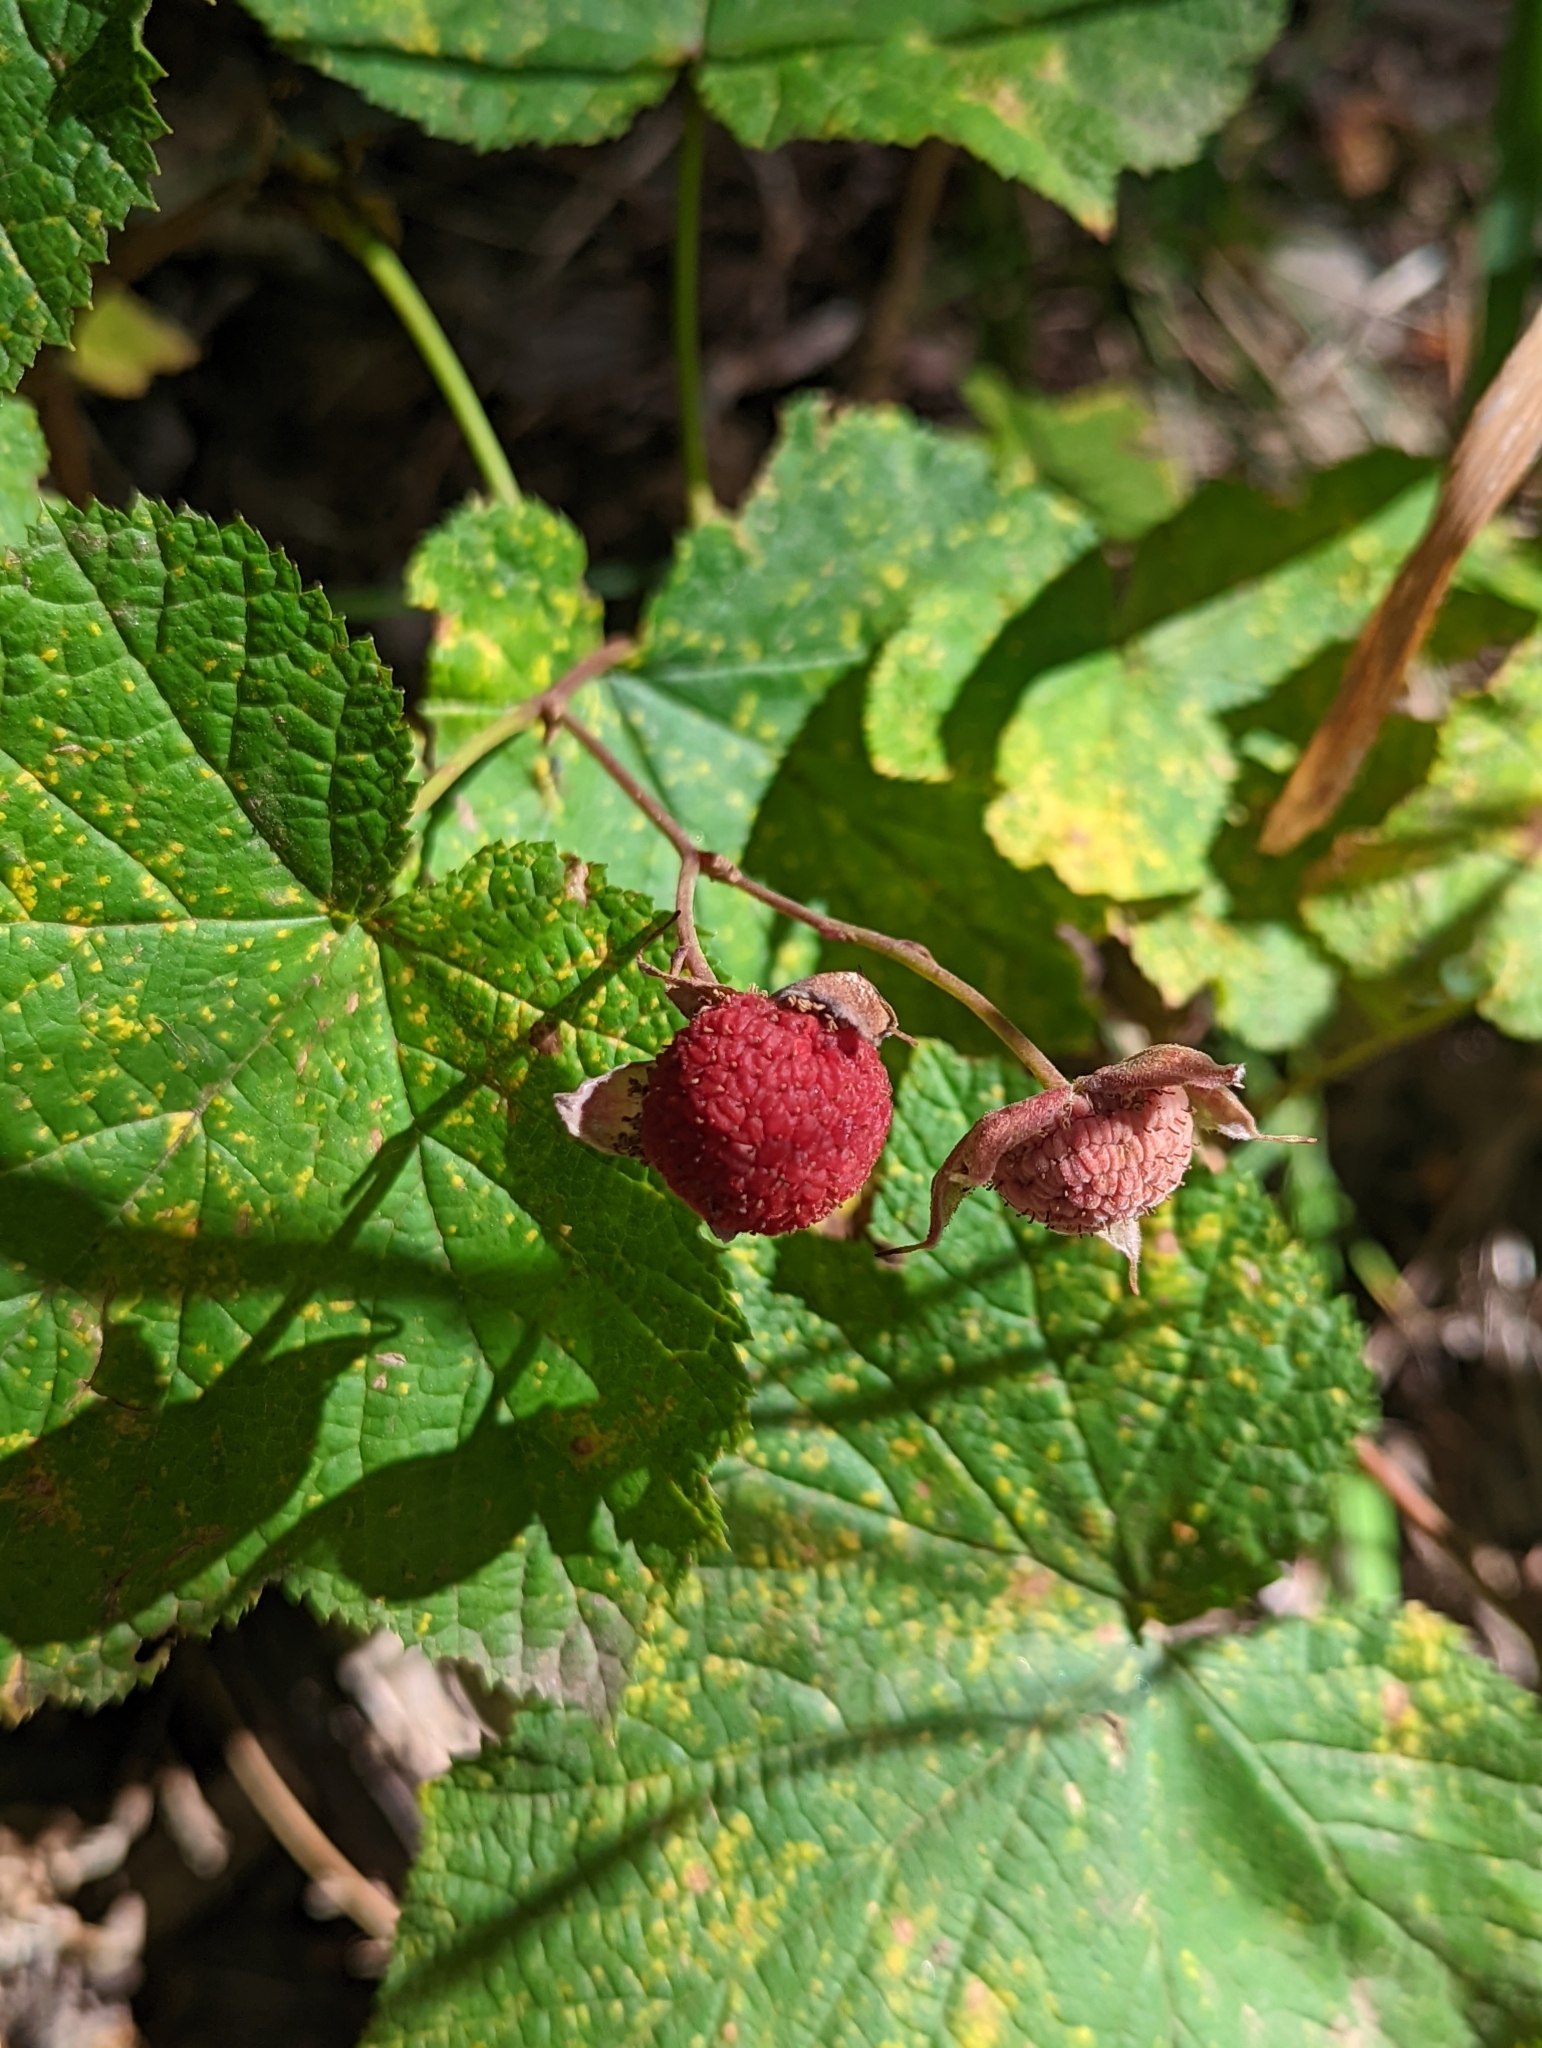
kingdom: Plantae
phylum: Tracheophyta
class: Magnoliopsida
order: Rosales
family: Rosaceae
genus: Rubus
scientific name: Rubus parviflorus
